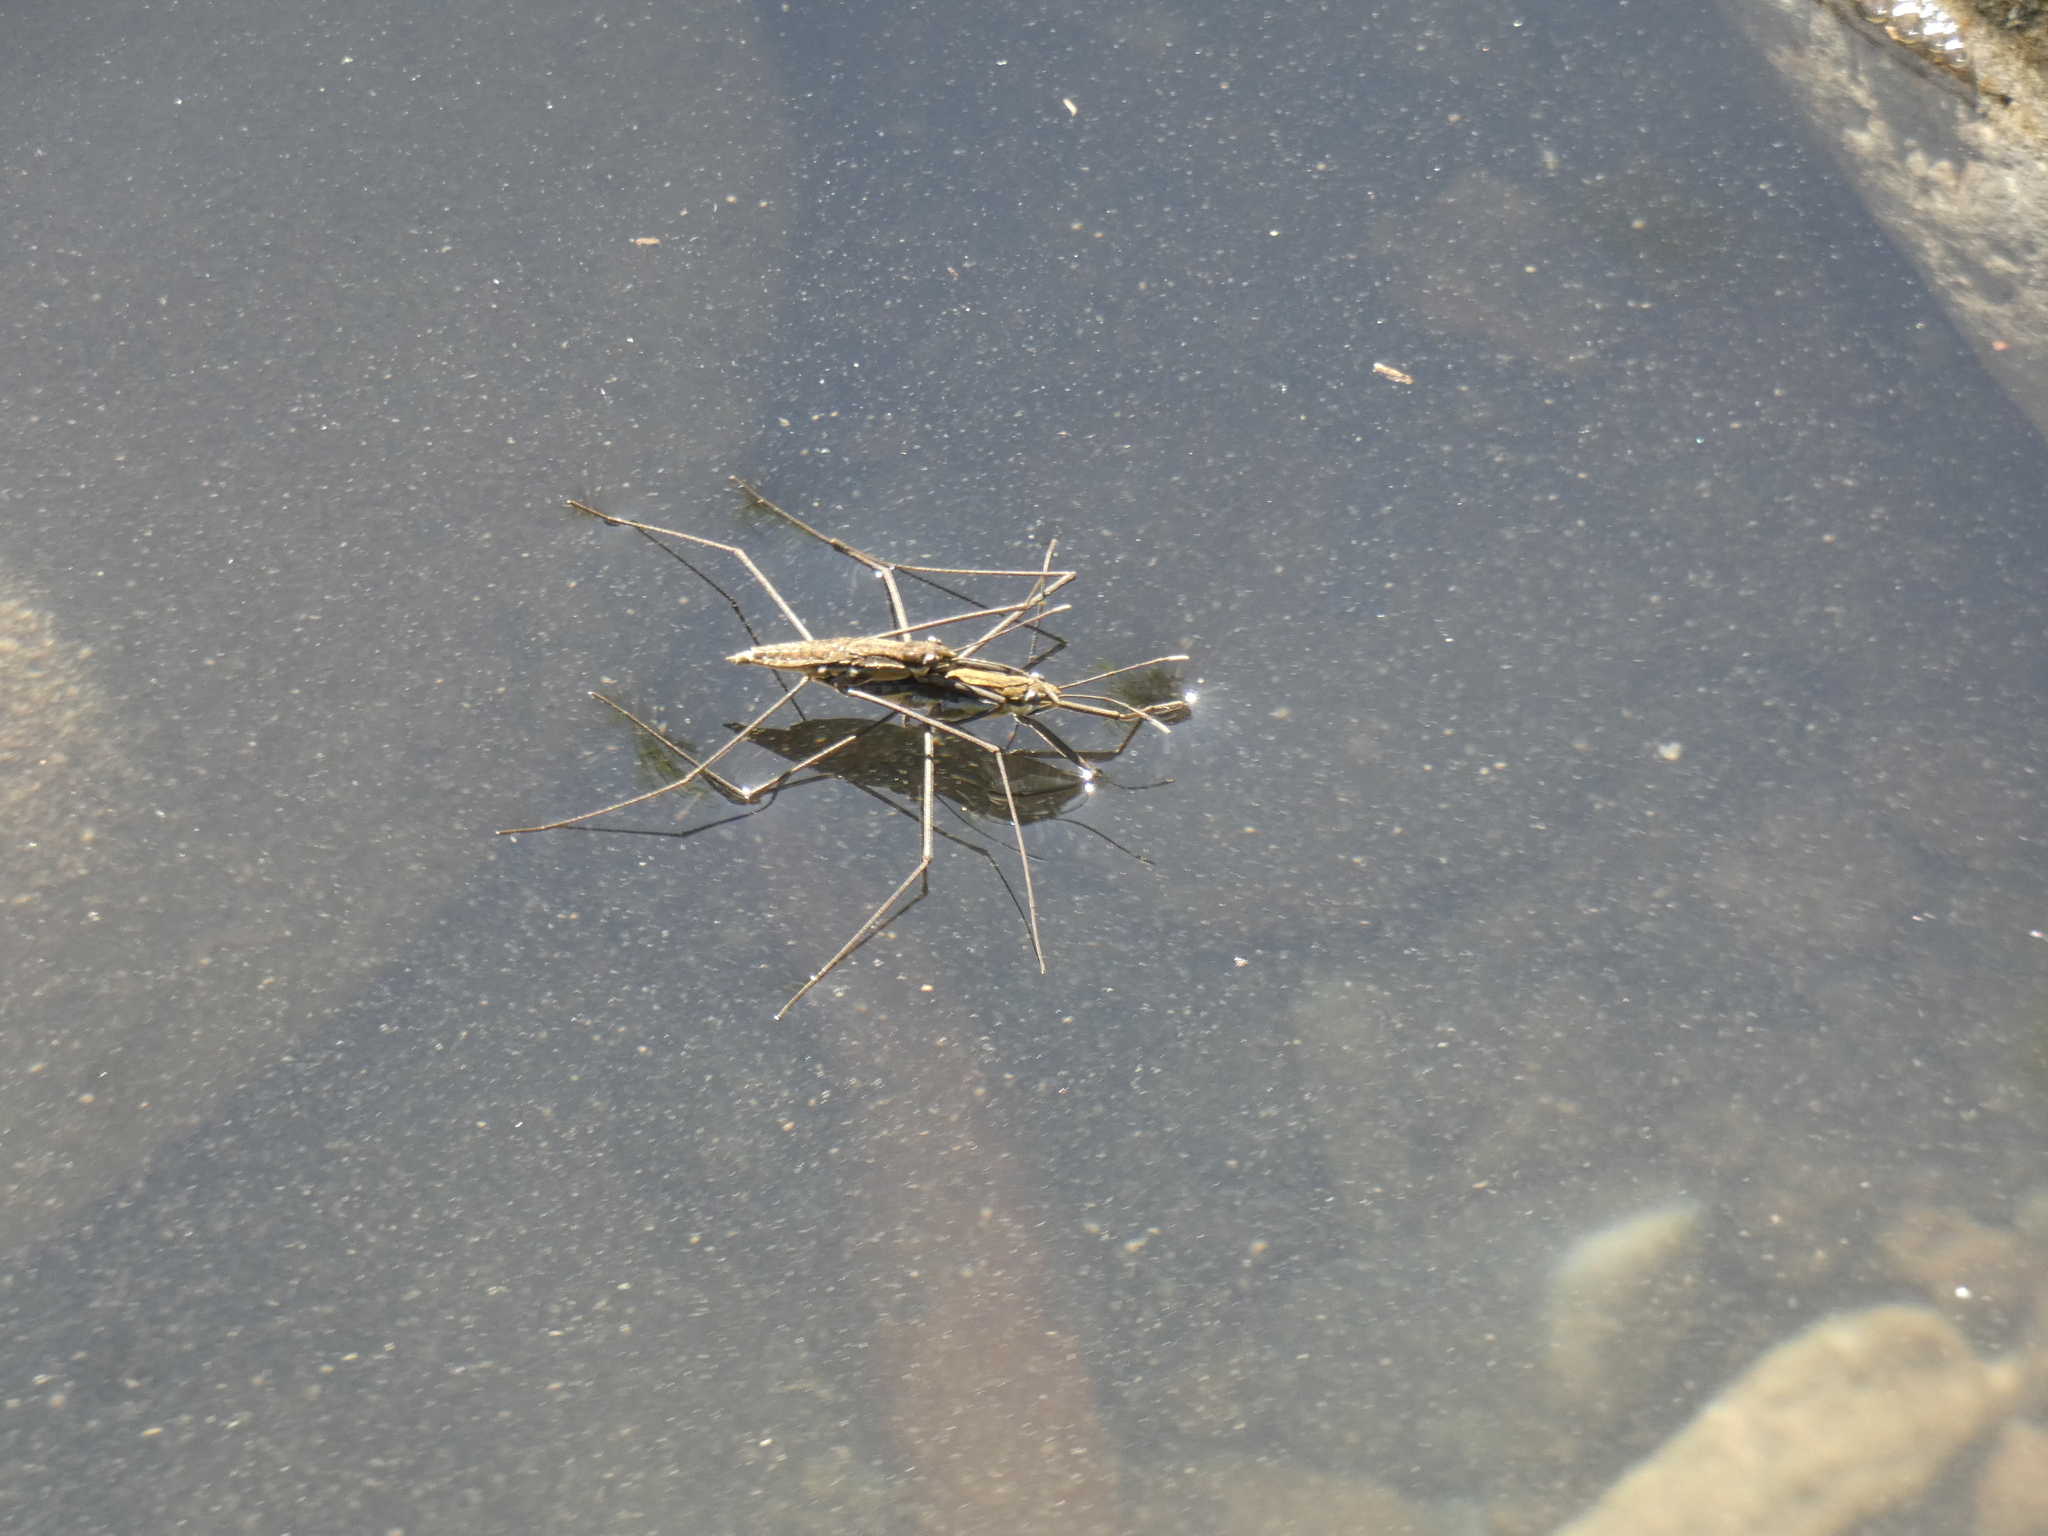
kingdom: Animalia
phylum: Arthropoda
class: Insecta
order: Hemiptera
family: Gerridae
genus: Aquarius
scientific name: Aquarius chilensis
